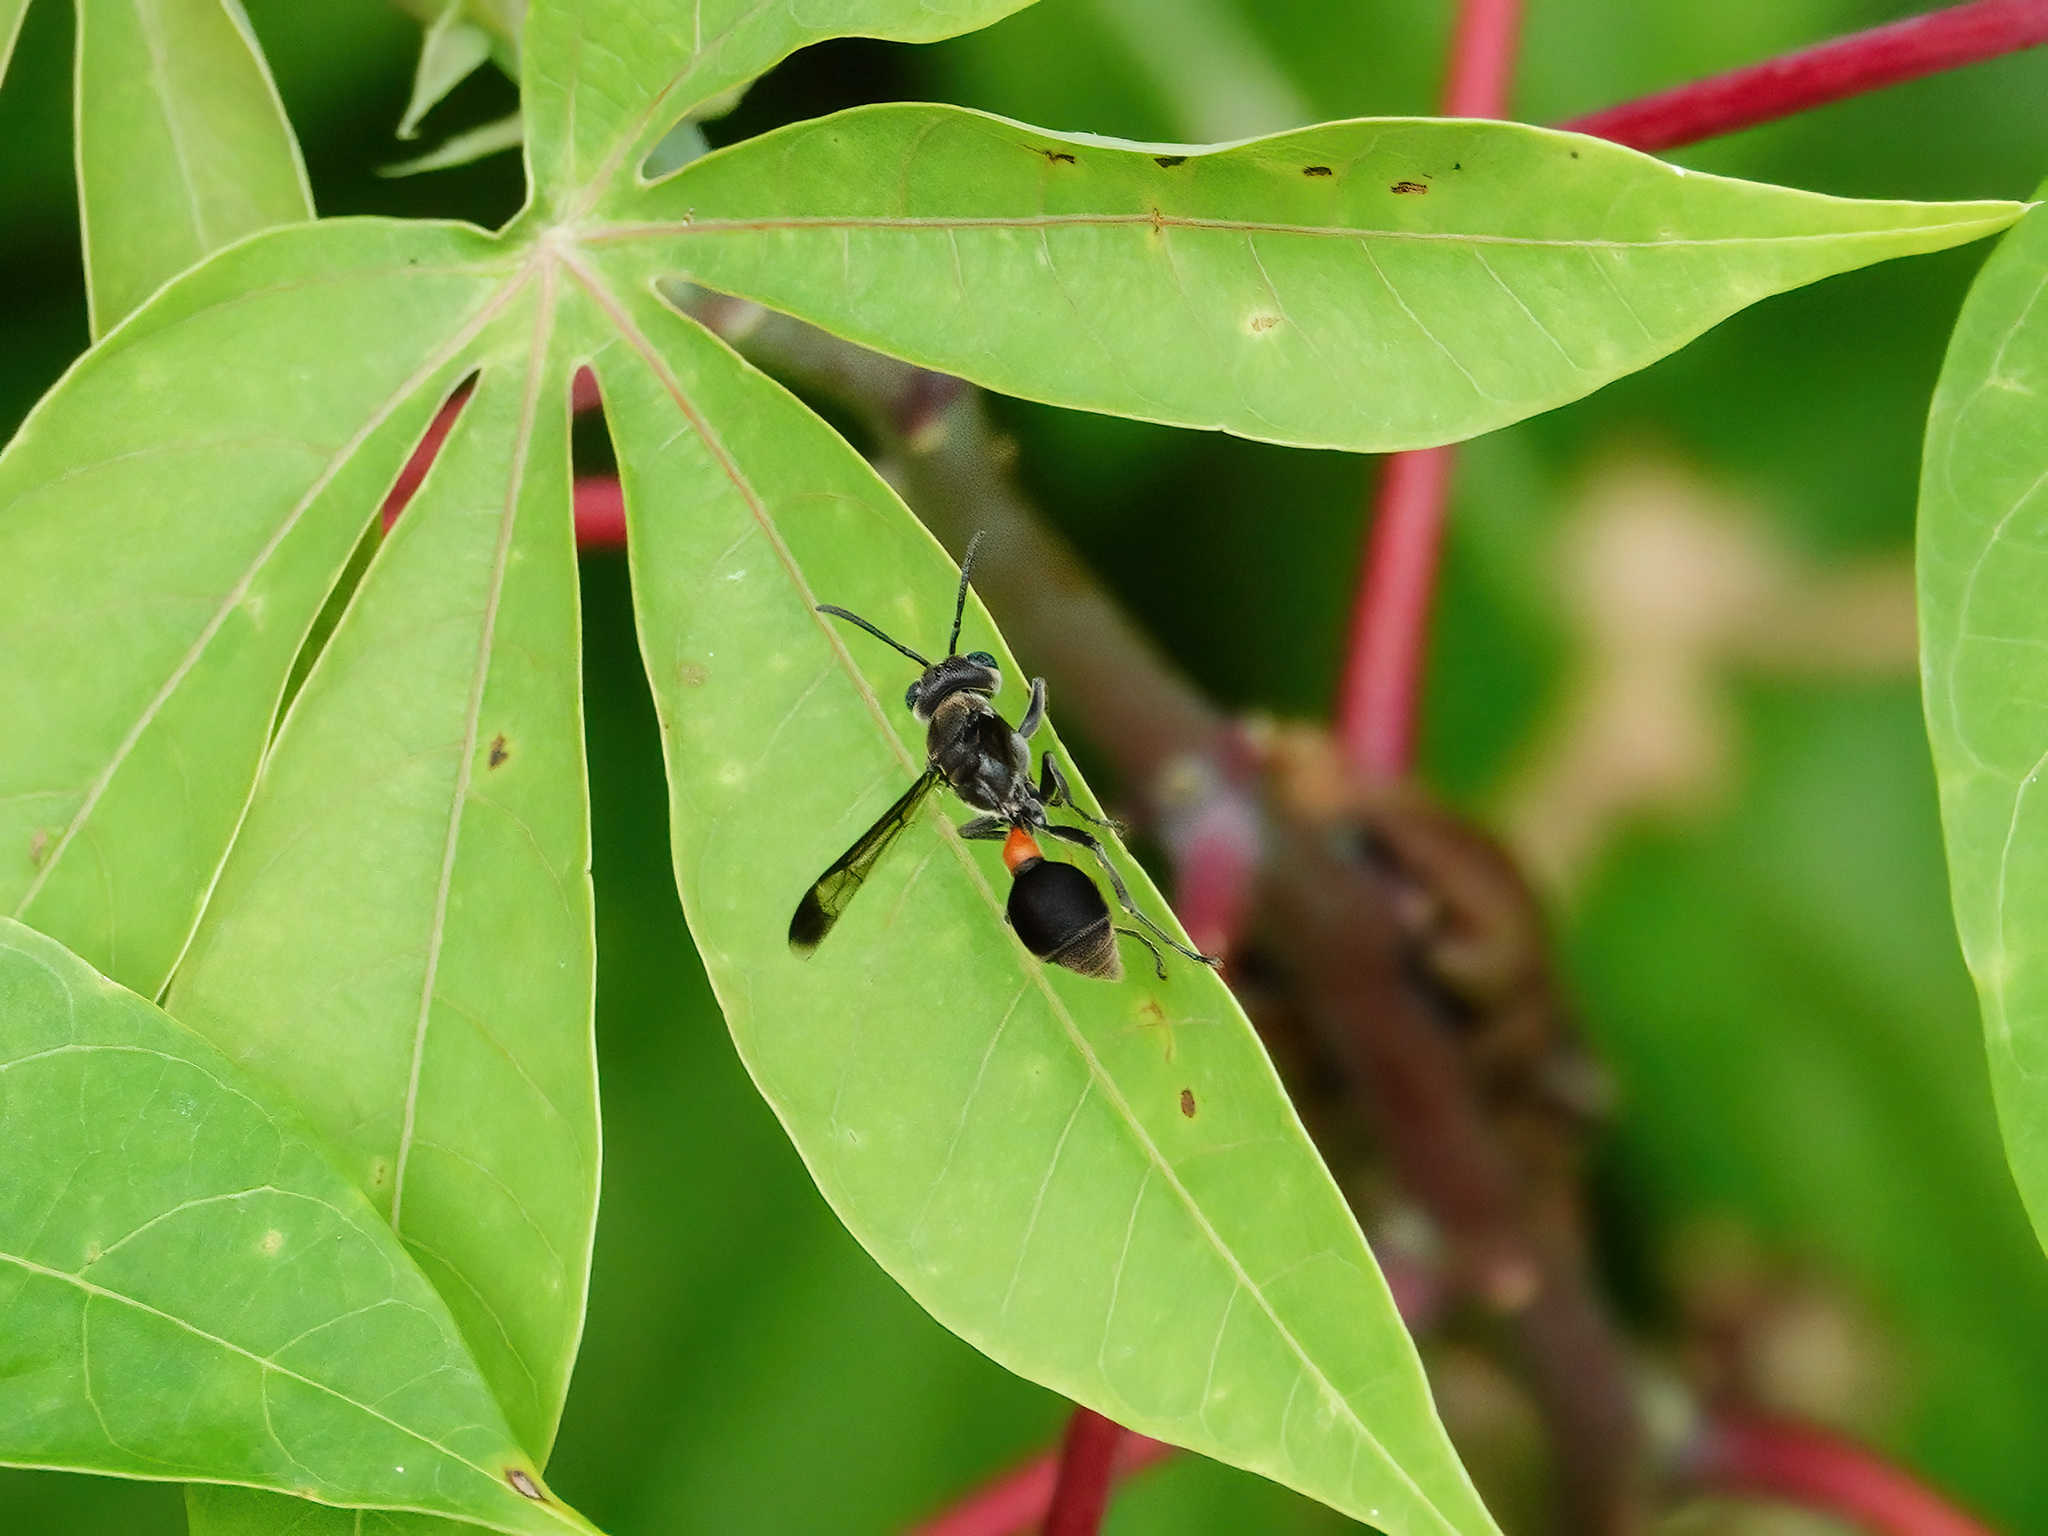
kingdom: Animalia
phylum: Arthropoda
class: Insecta
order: Hymenoptera
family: Vespidae
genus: Ropalidia
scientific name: Ropalidia sumatrae
